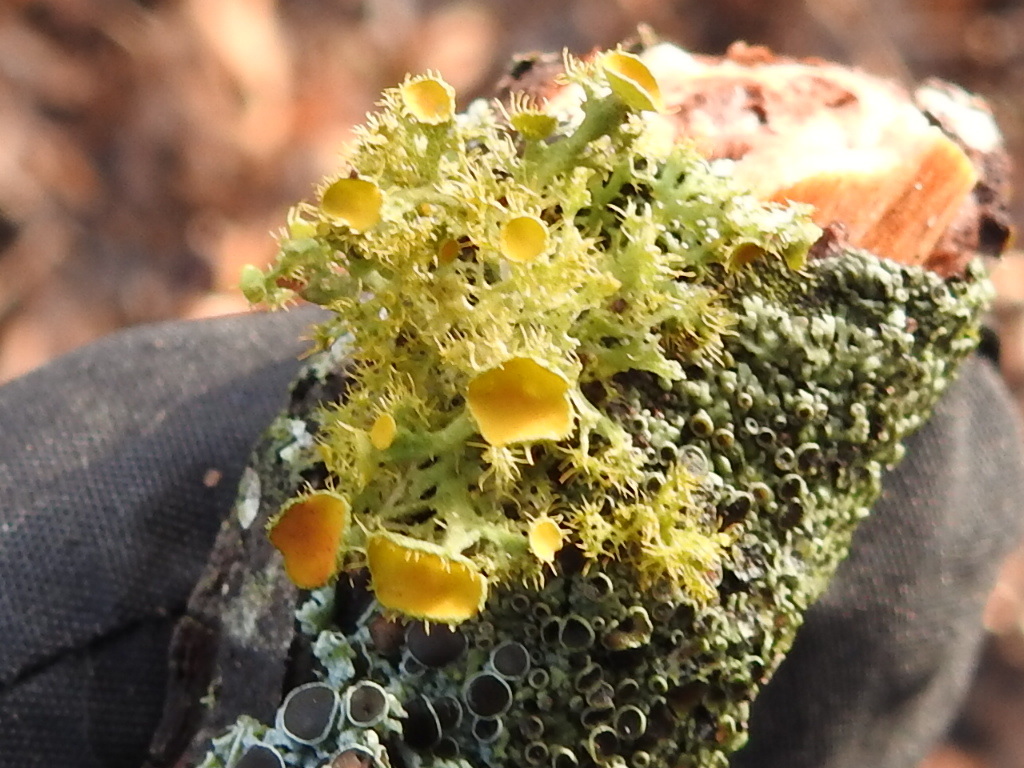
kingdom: Fungi
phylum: Ascomycota
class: Lecanoromycetes
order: Teloschistales
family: Teloschistaceae
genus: Niorma
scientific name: Niorma chrysophthalma
